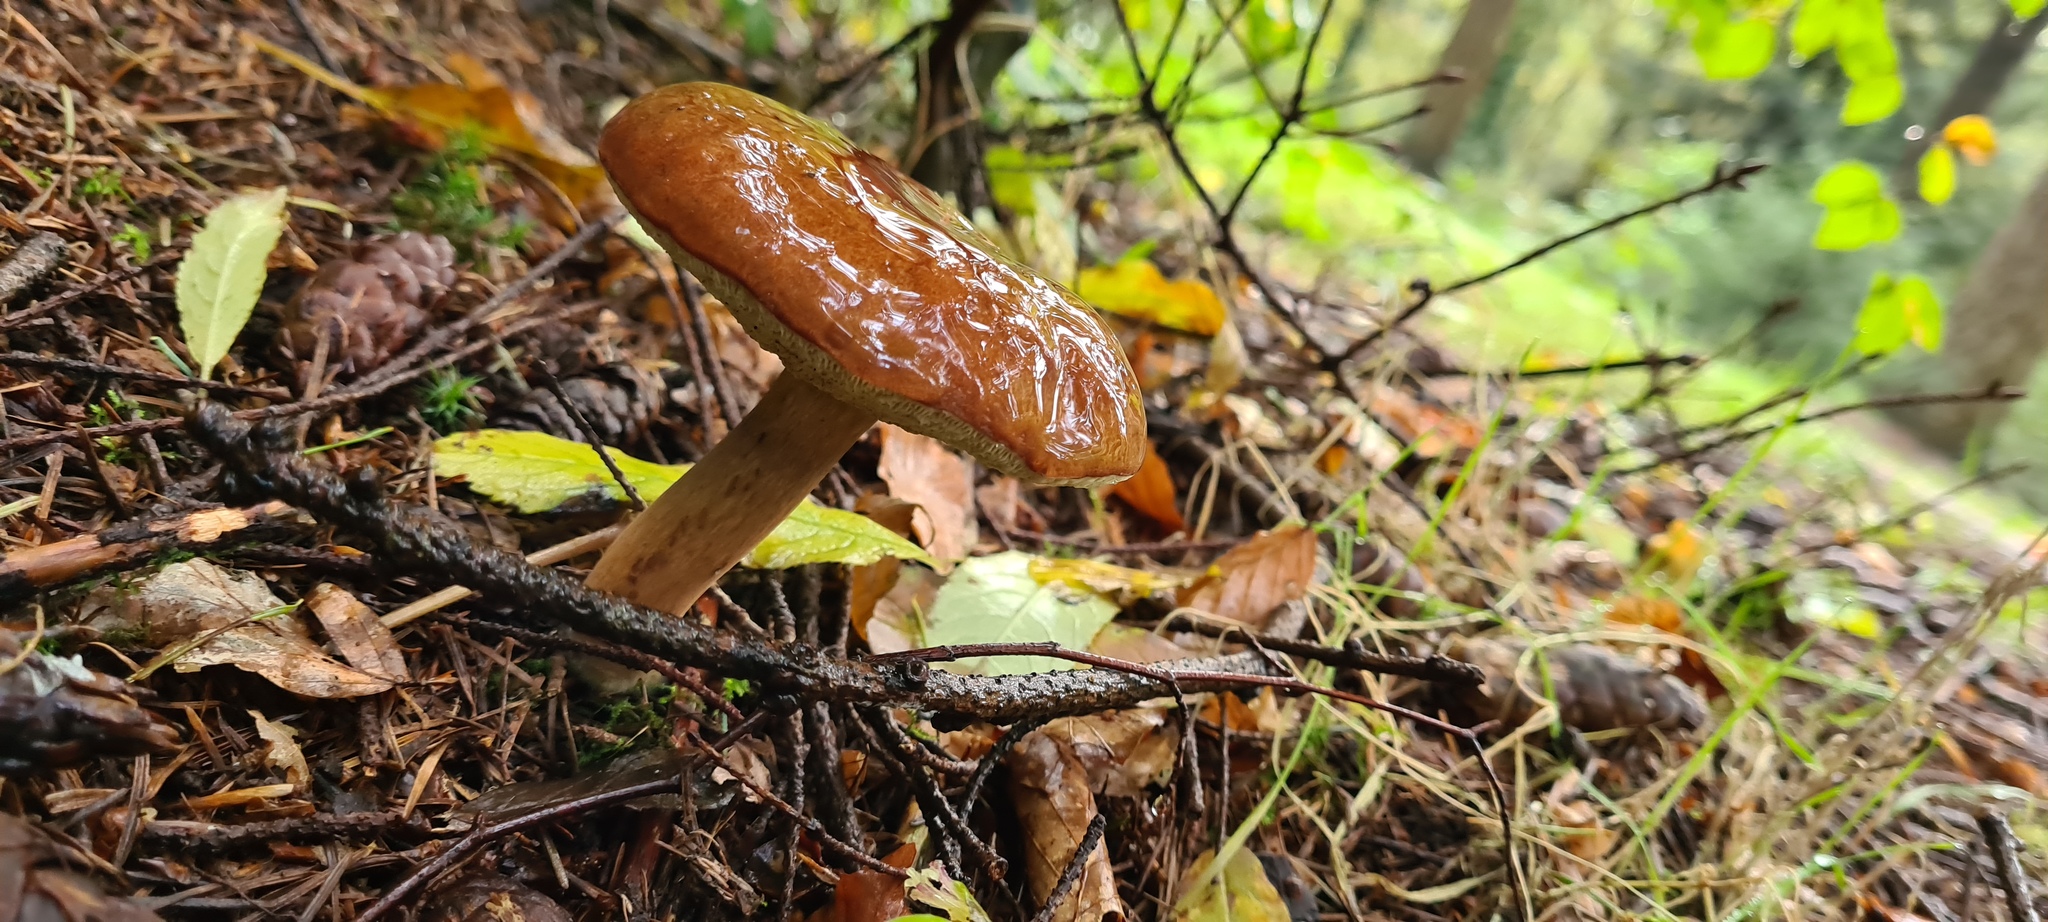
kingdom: Fungi
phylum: Basidiomycota
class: Agaricomycetes
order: Boletales
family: Boletaceae
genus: Imleria
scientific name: Imleria badia
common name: Bay bolete
